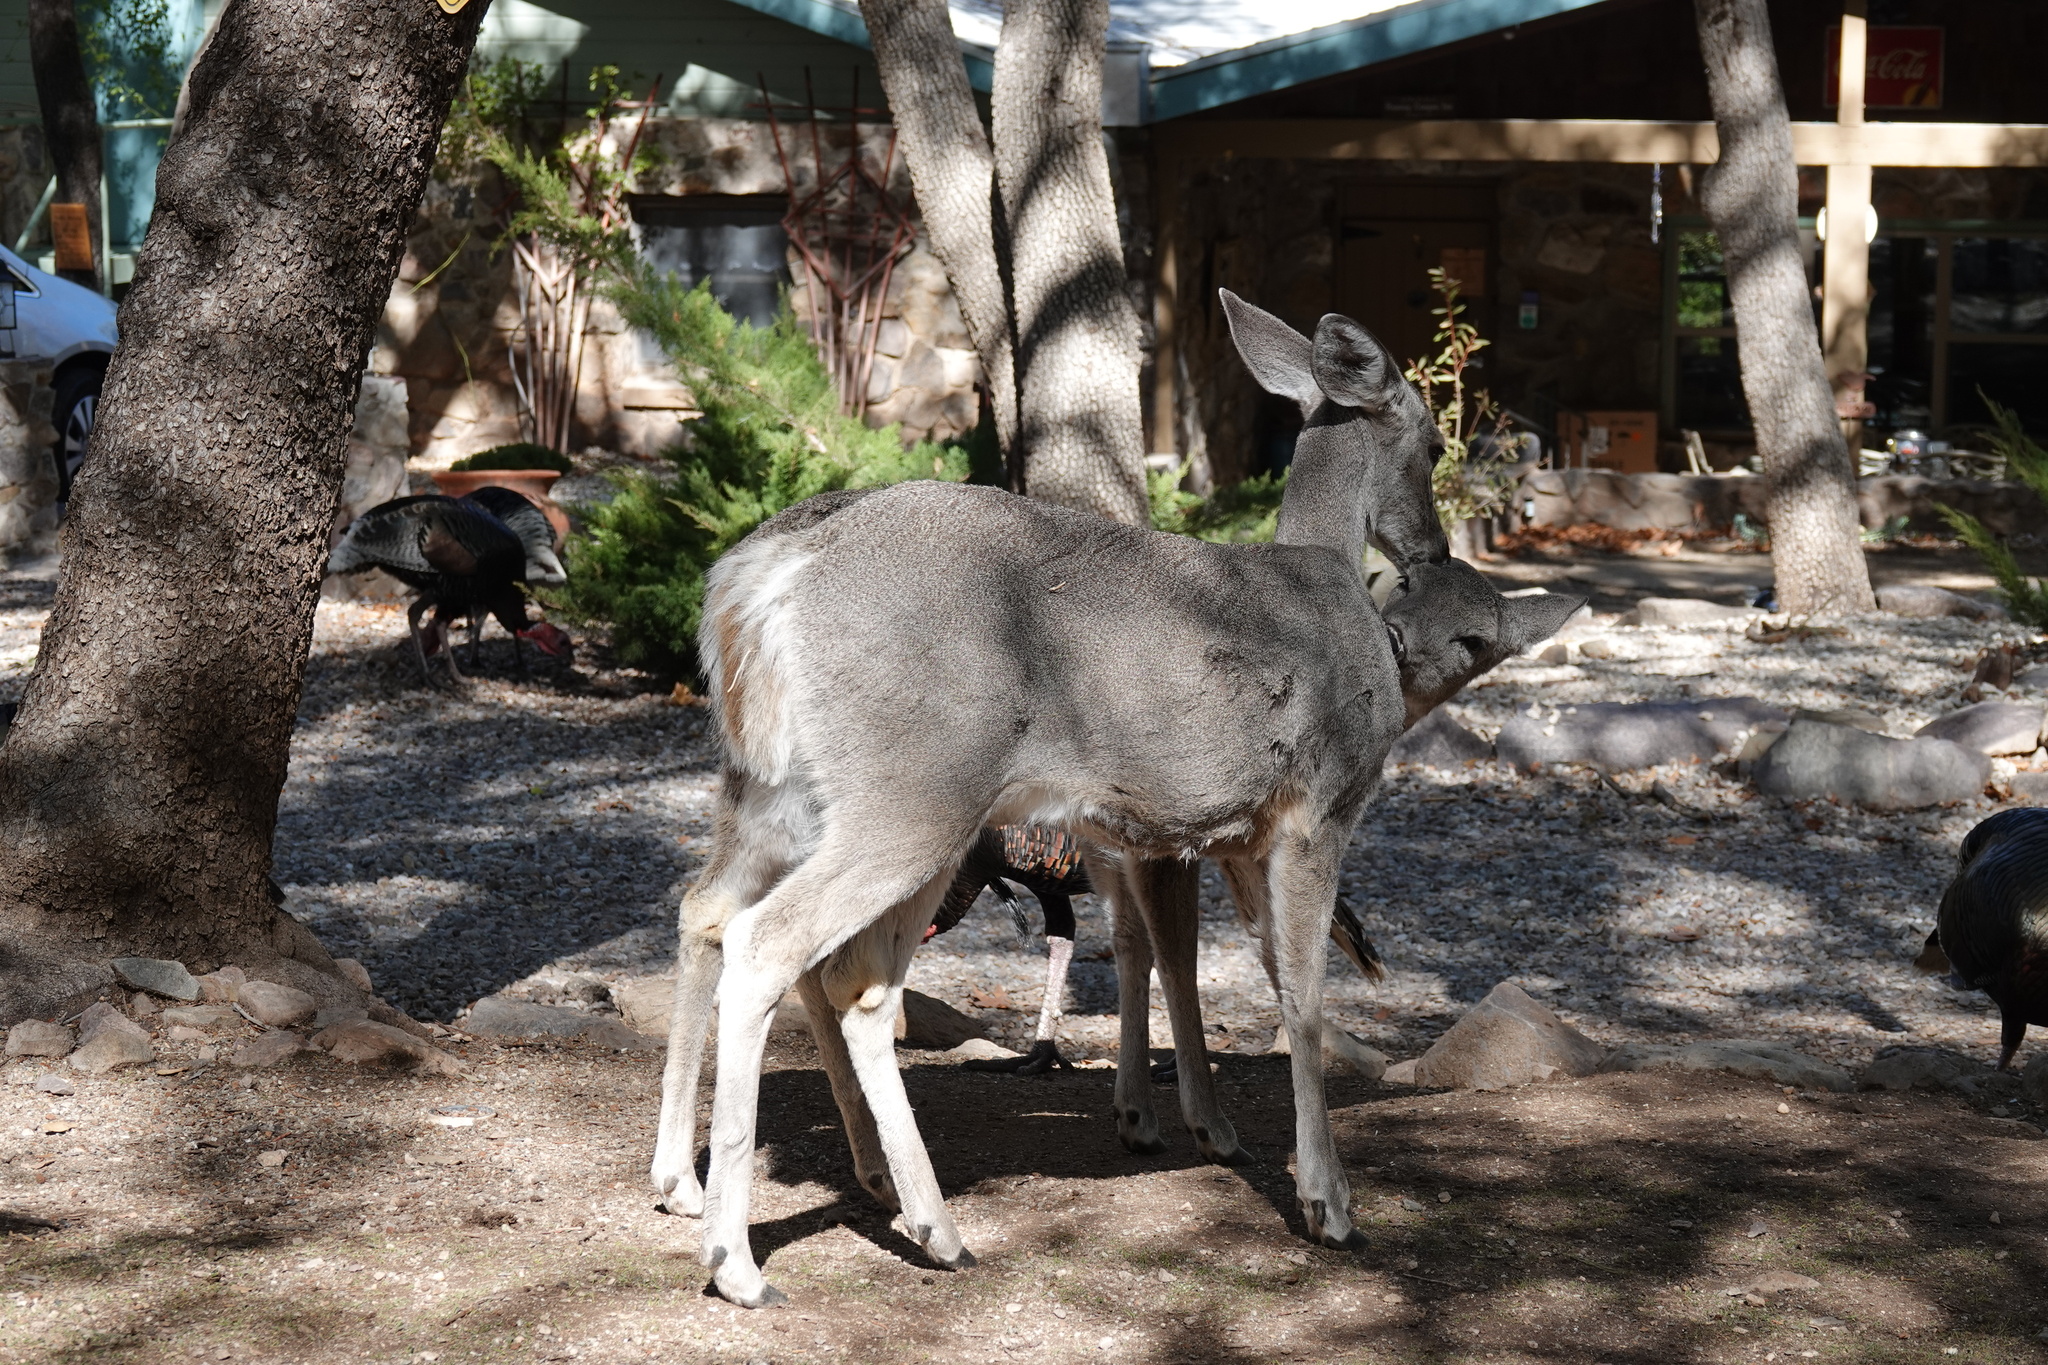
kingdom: Animalia
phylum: Chordata
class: Mammalia
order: Artiodactyla
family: Cervidae
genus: Odocoileus
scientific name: Odocoileus virginianus
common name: White-tailed deer
